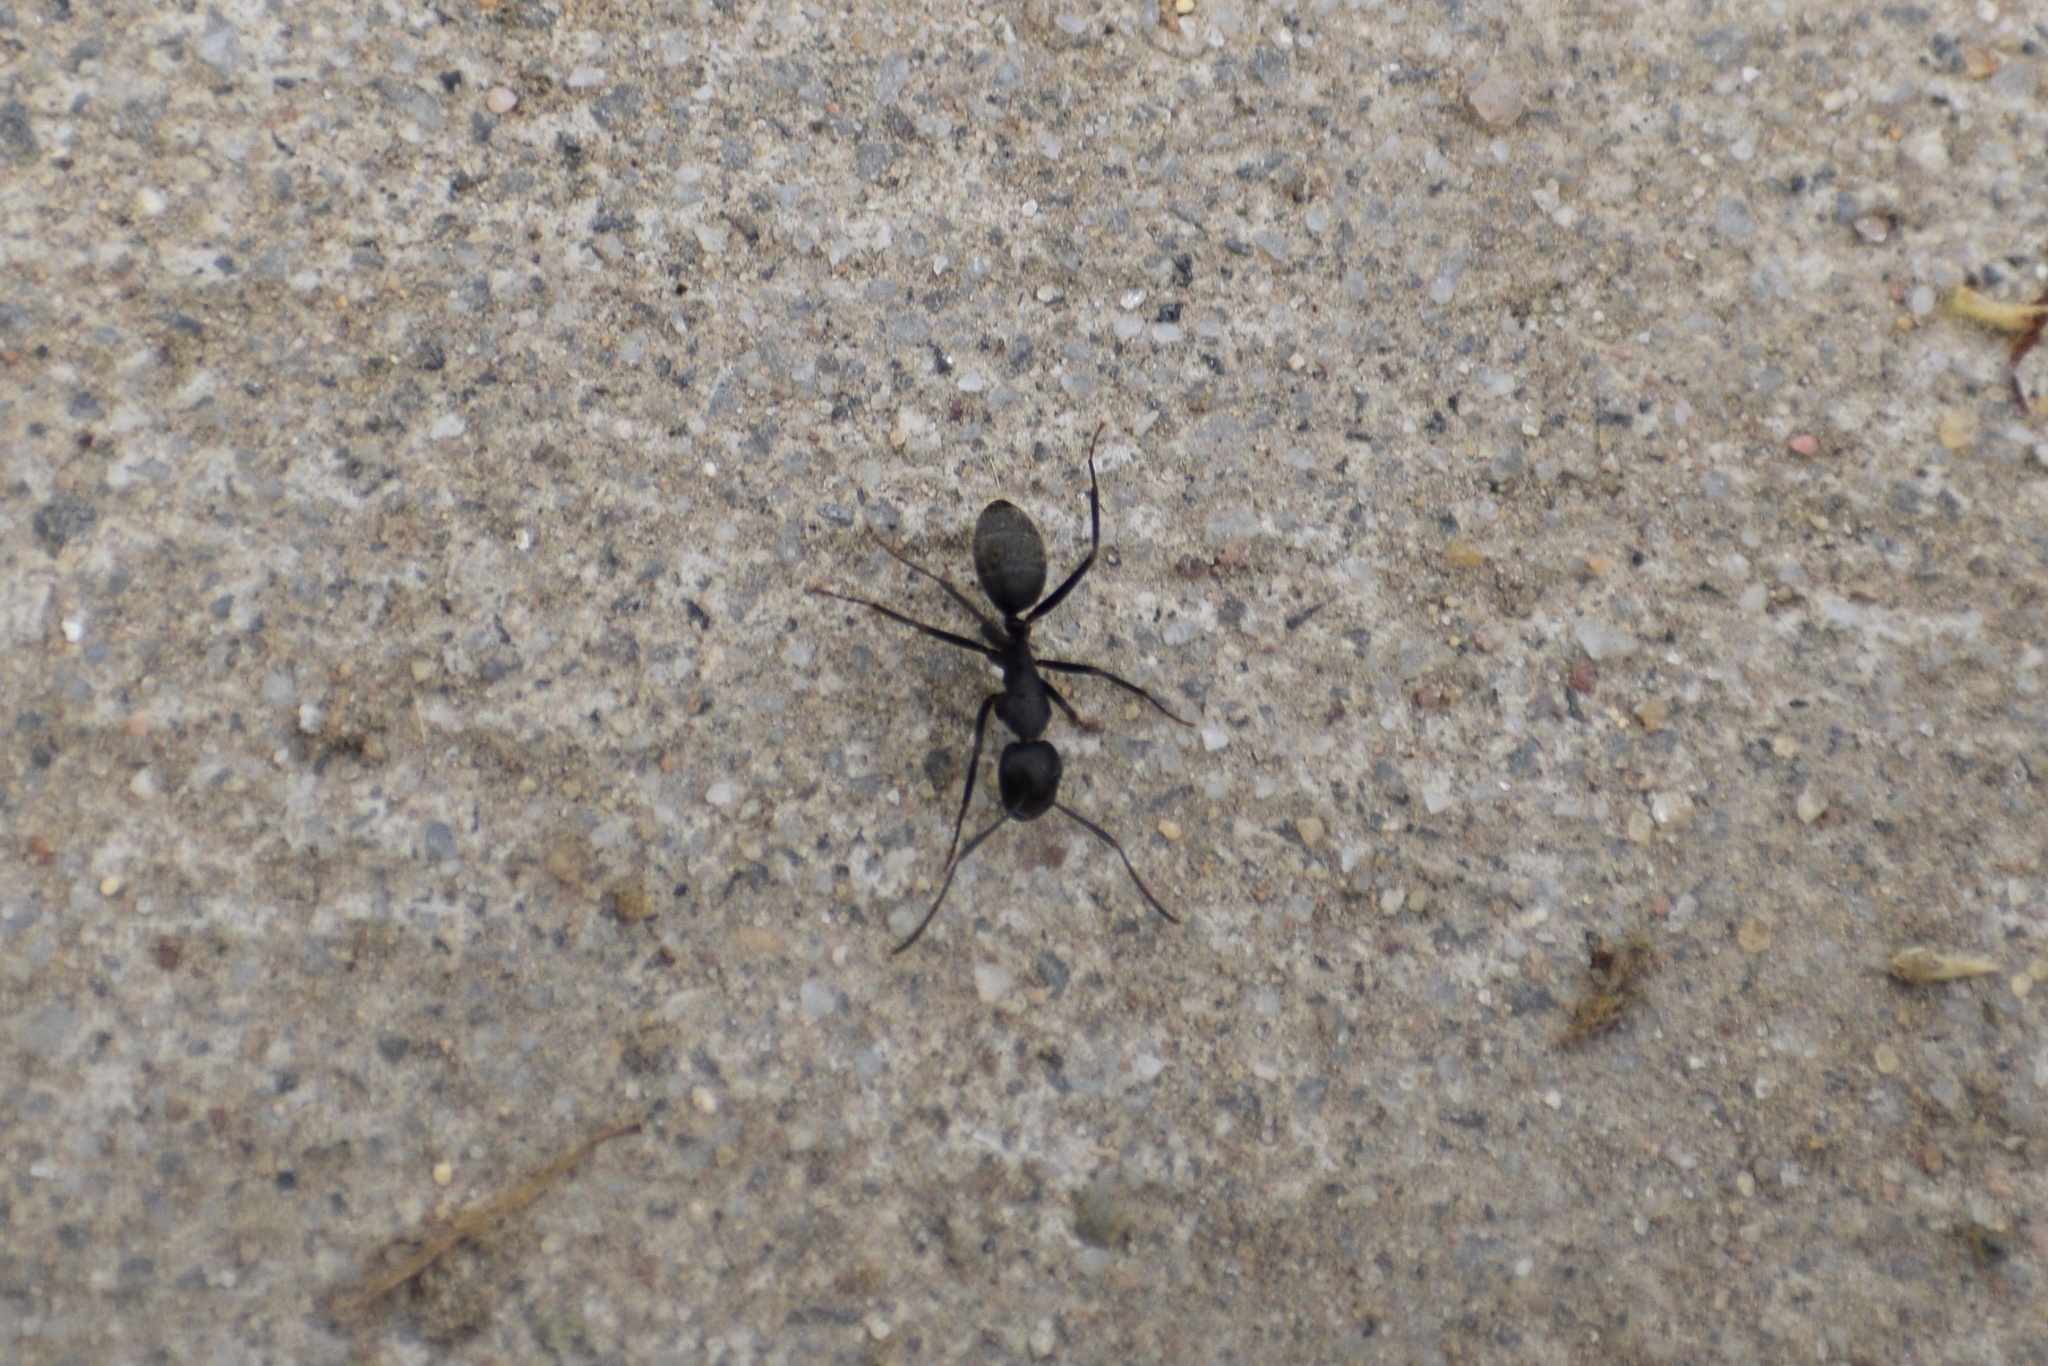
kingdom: Animalia
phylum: Arthropoda
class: Insecta
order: Hymenoptera
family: Formicidae
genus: Camponotus
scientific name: Camponotus pennsylvanicus
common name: Black carpenter ant
